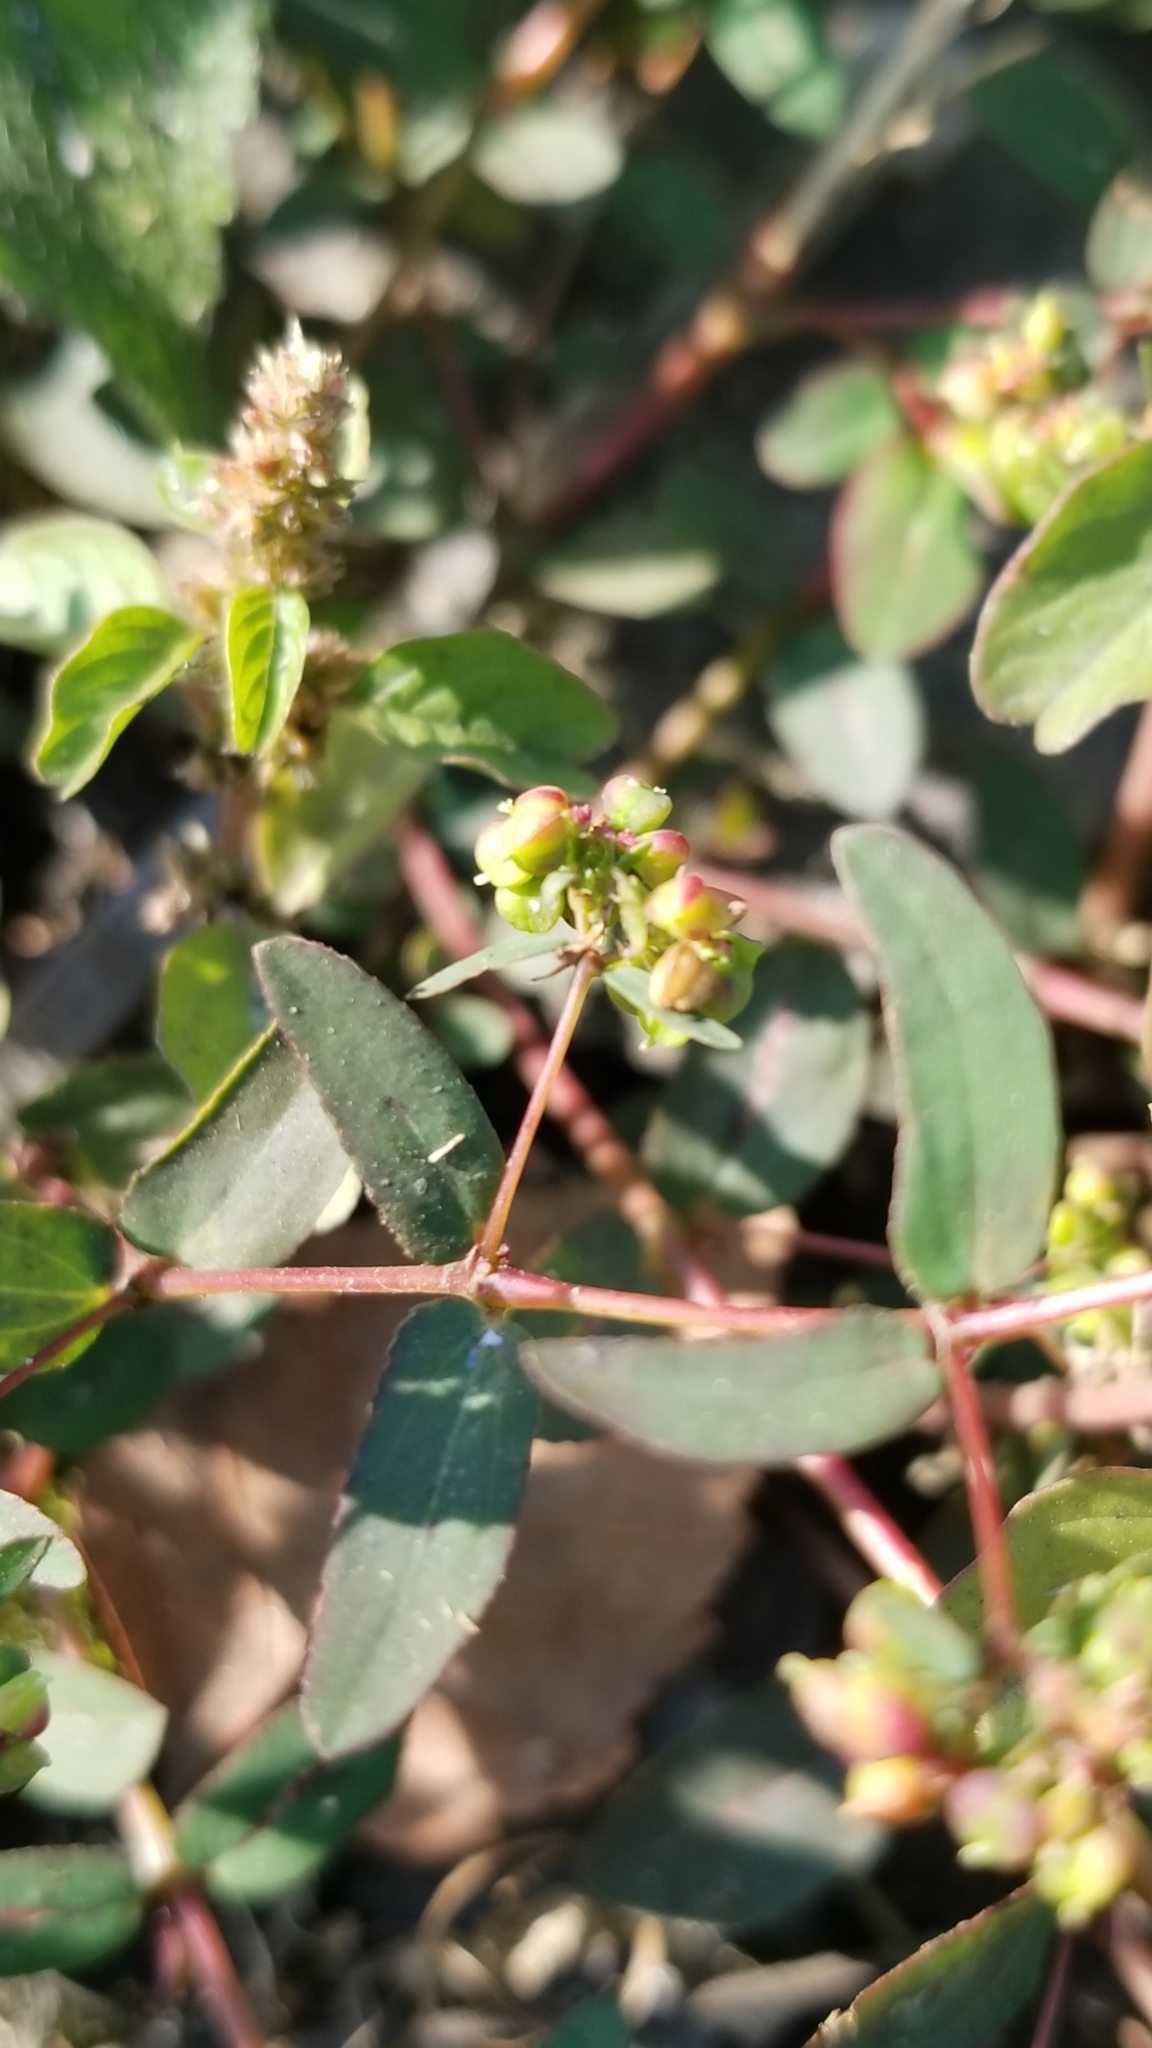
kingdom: Plantae
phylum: Tracheophyta
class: Magnoliopsida
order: Malpighiales
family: Euphorbiaceae
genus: Euphorbia
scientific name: Euphorbia nutans
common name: Eyebane
